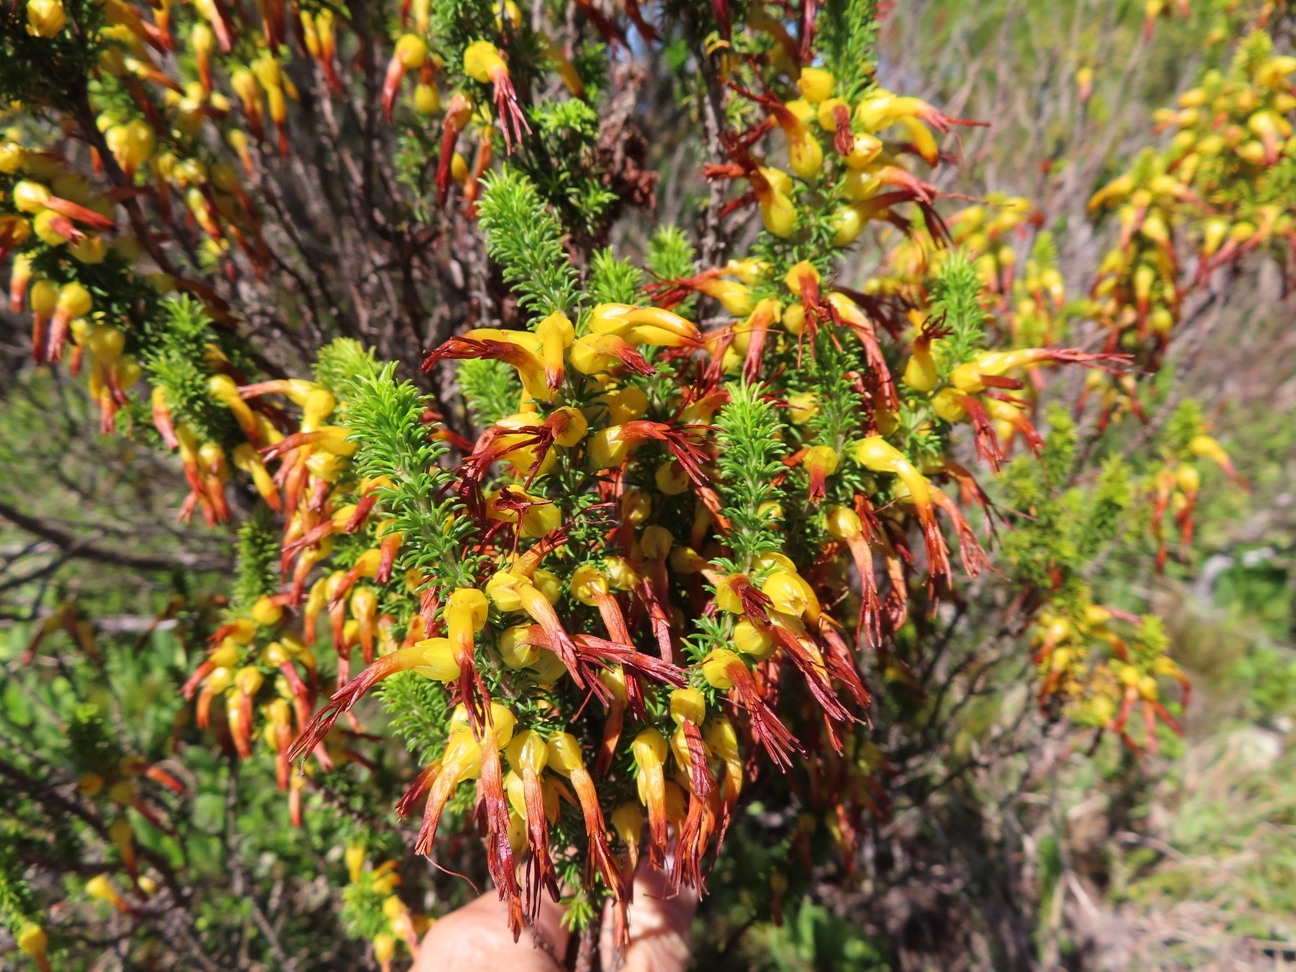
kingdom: Plantae
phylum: Tracheophyta
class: Magnoliopsida
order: Ericales
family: Ericaceae
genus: Erica
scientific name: Erica coccinea
